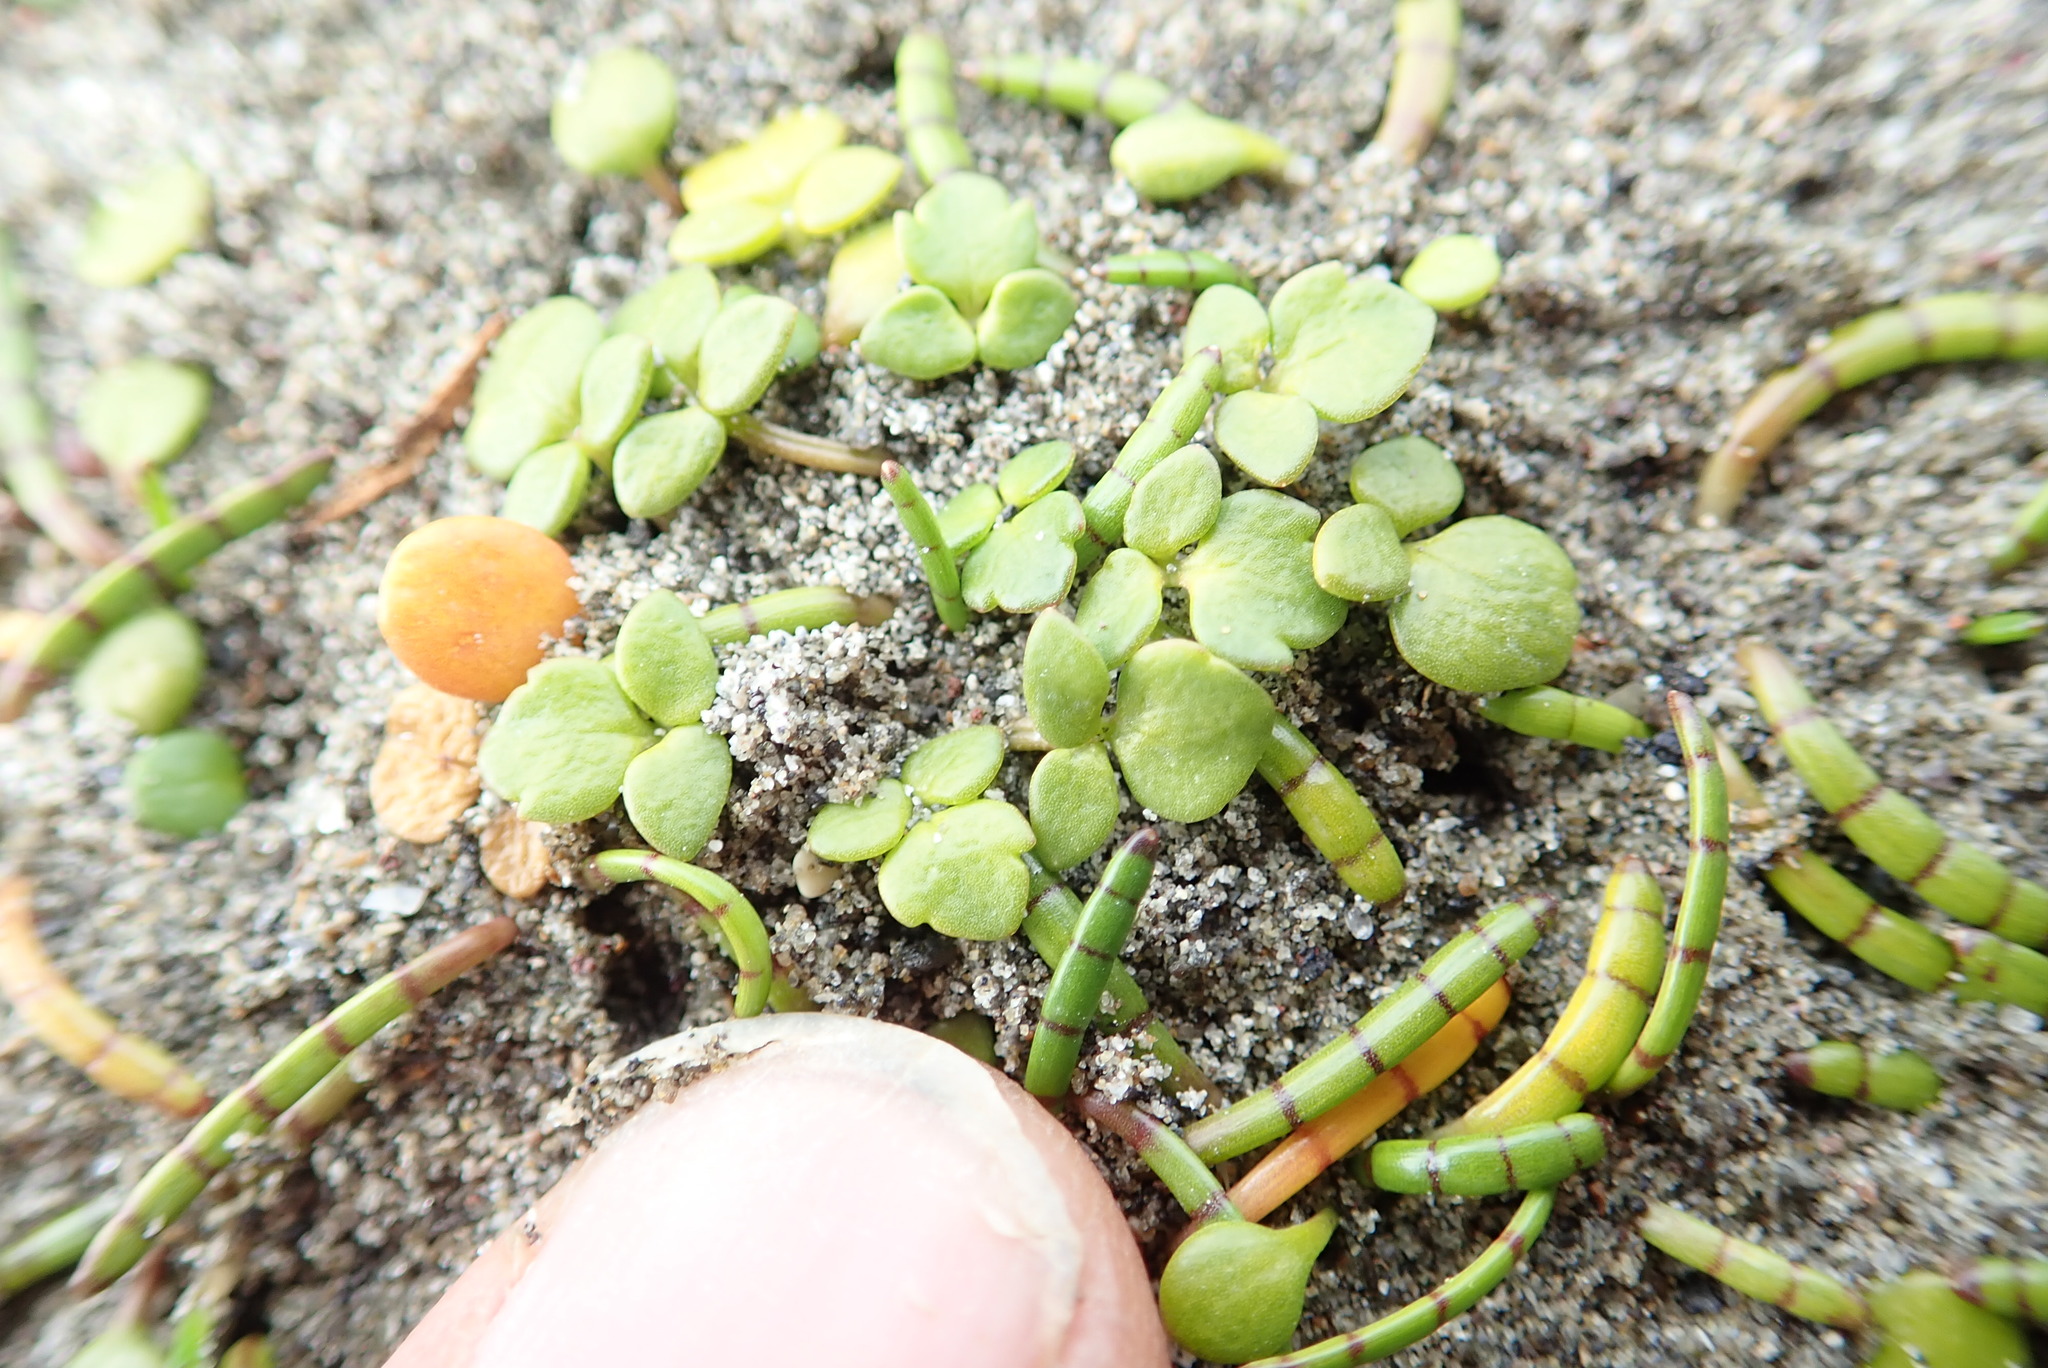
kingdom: Plantae
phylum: Tracheophyta
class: Magnoliopsida
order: Ranunculales
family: Ranunculaceae
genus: Ranunculus
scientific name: Ranunculus acaulis
